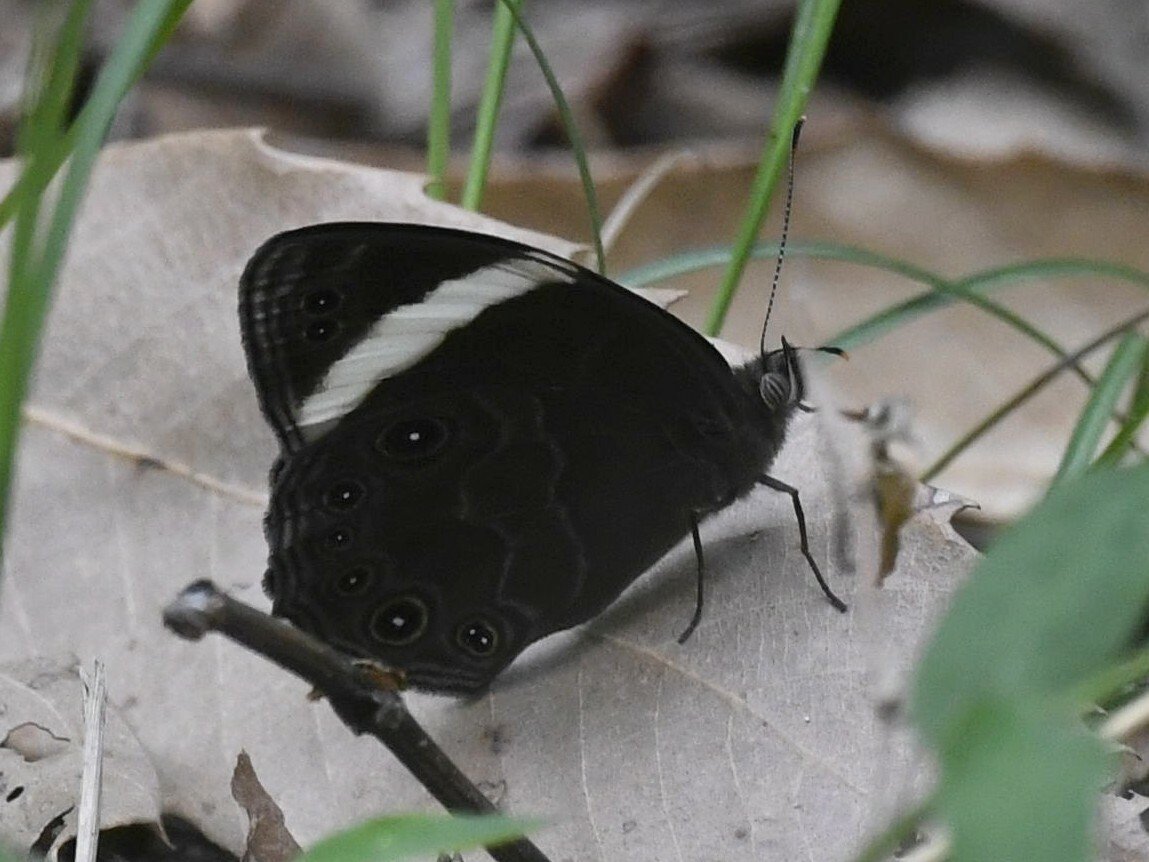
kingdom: Animalia
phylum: Arthropoda
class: Insecta
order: Lepidoptera
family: Nymphalidae
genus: Lethe
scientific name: Lethe verma
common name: Straight-banded treebrown
